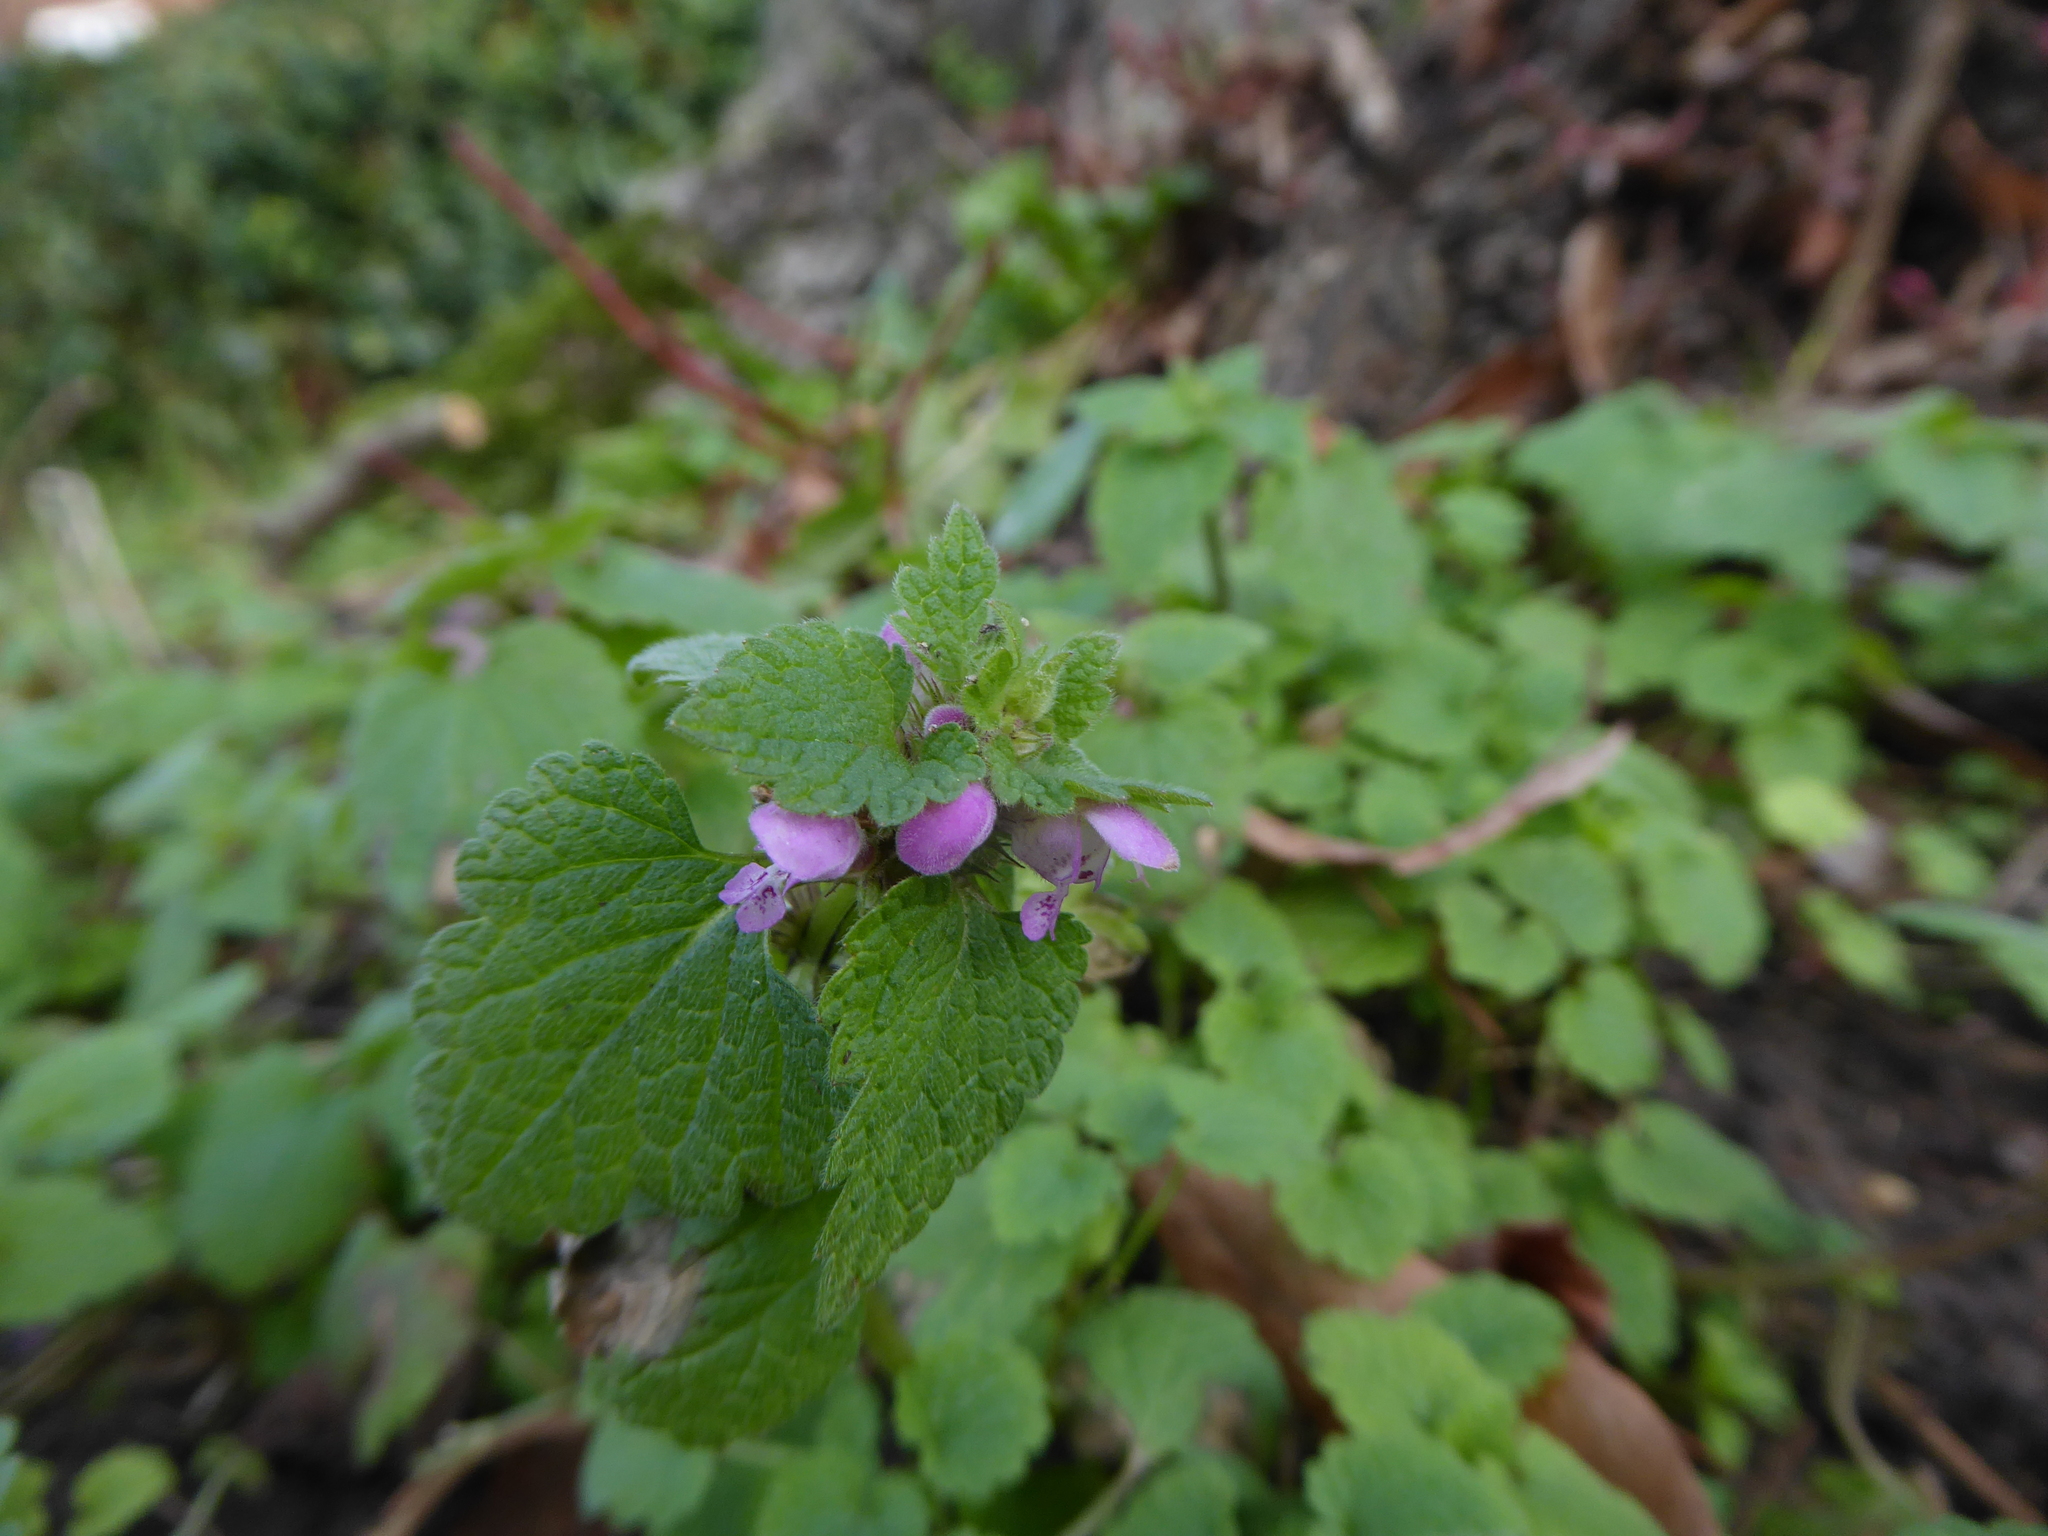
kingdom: Plantae
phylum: Tracheophyta
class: Magnoliopsida
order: Lamiales
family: Lamiaceae
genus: Lamium
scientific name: Lamium purpureum
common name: Red dead-nettle
